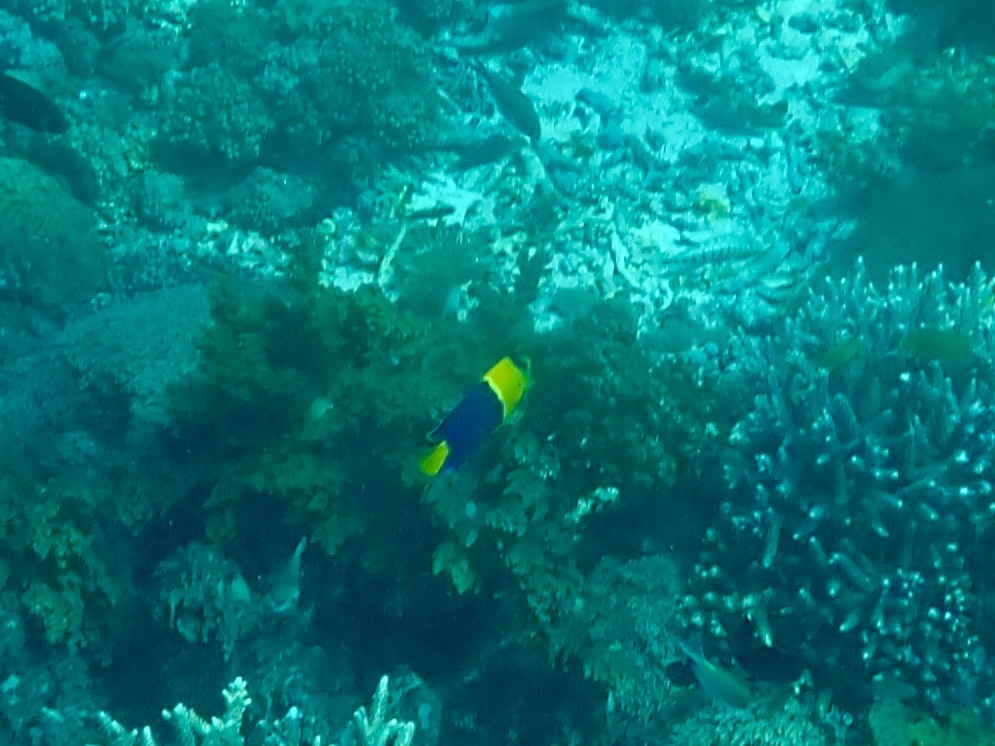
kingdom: Animalia
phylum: Chordata
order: Perciformes
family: Pomacanthidae
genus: Centropyge
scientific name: Centropyge bicolor
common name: Bicolor angelfish
